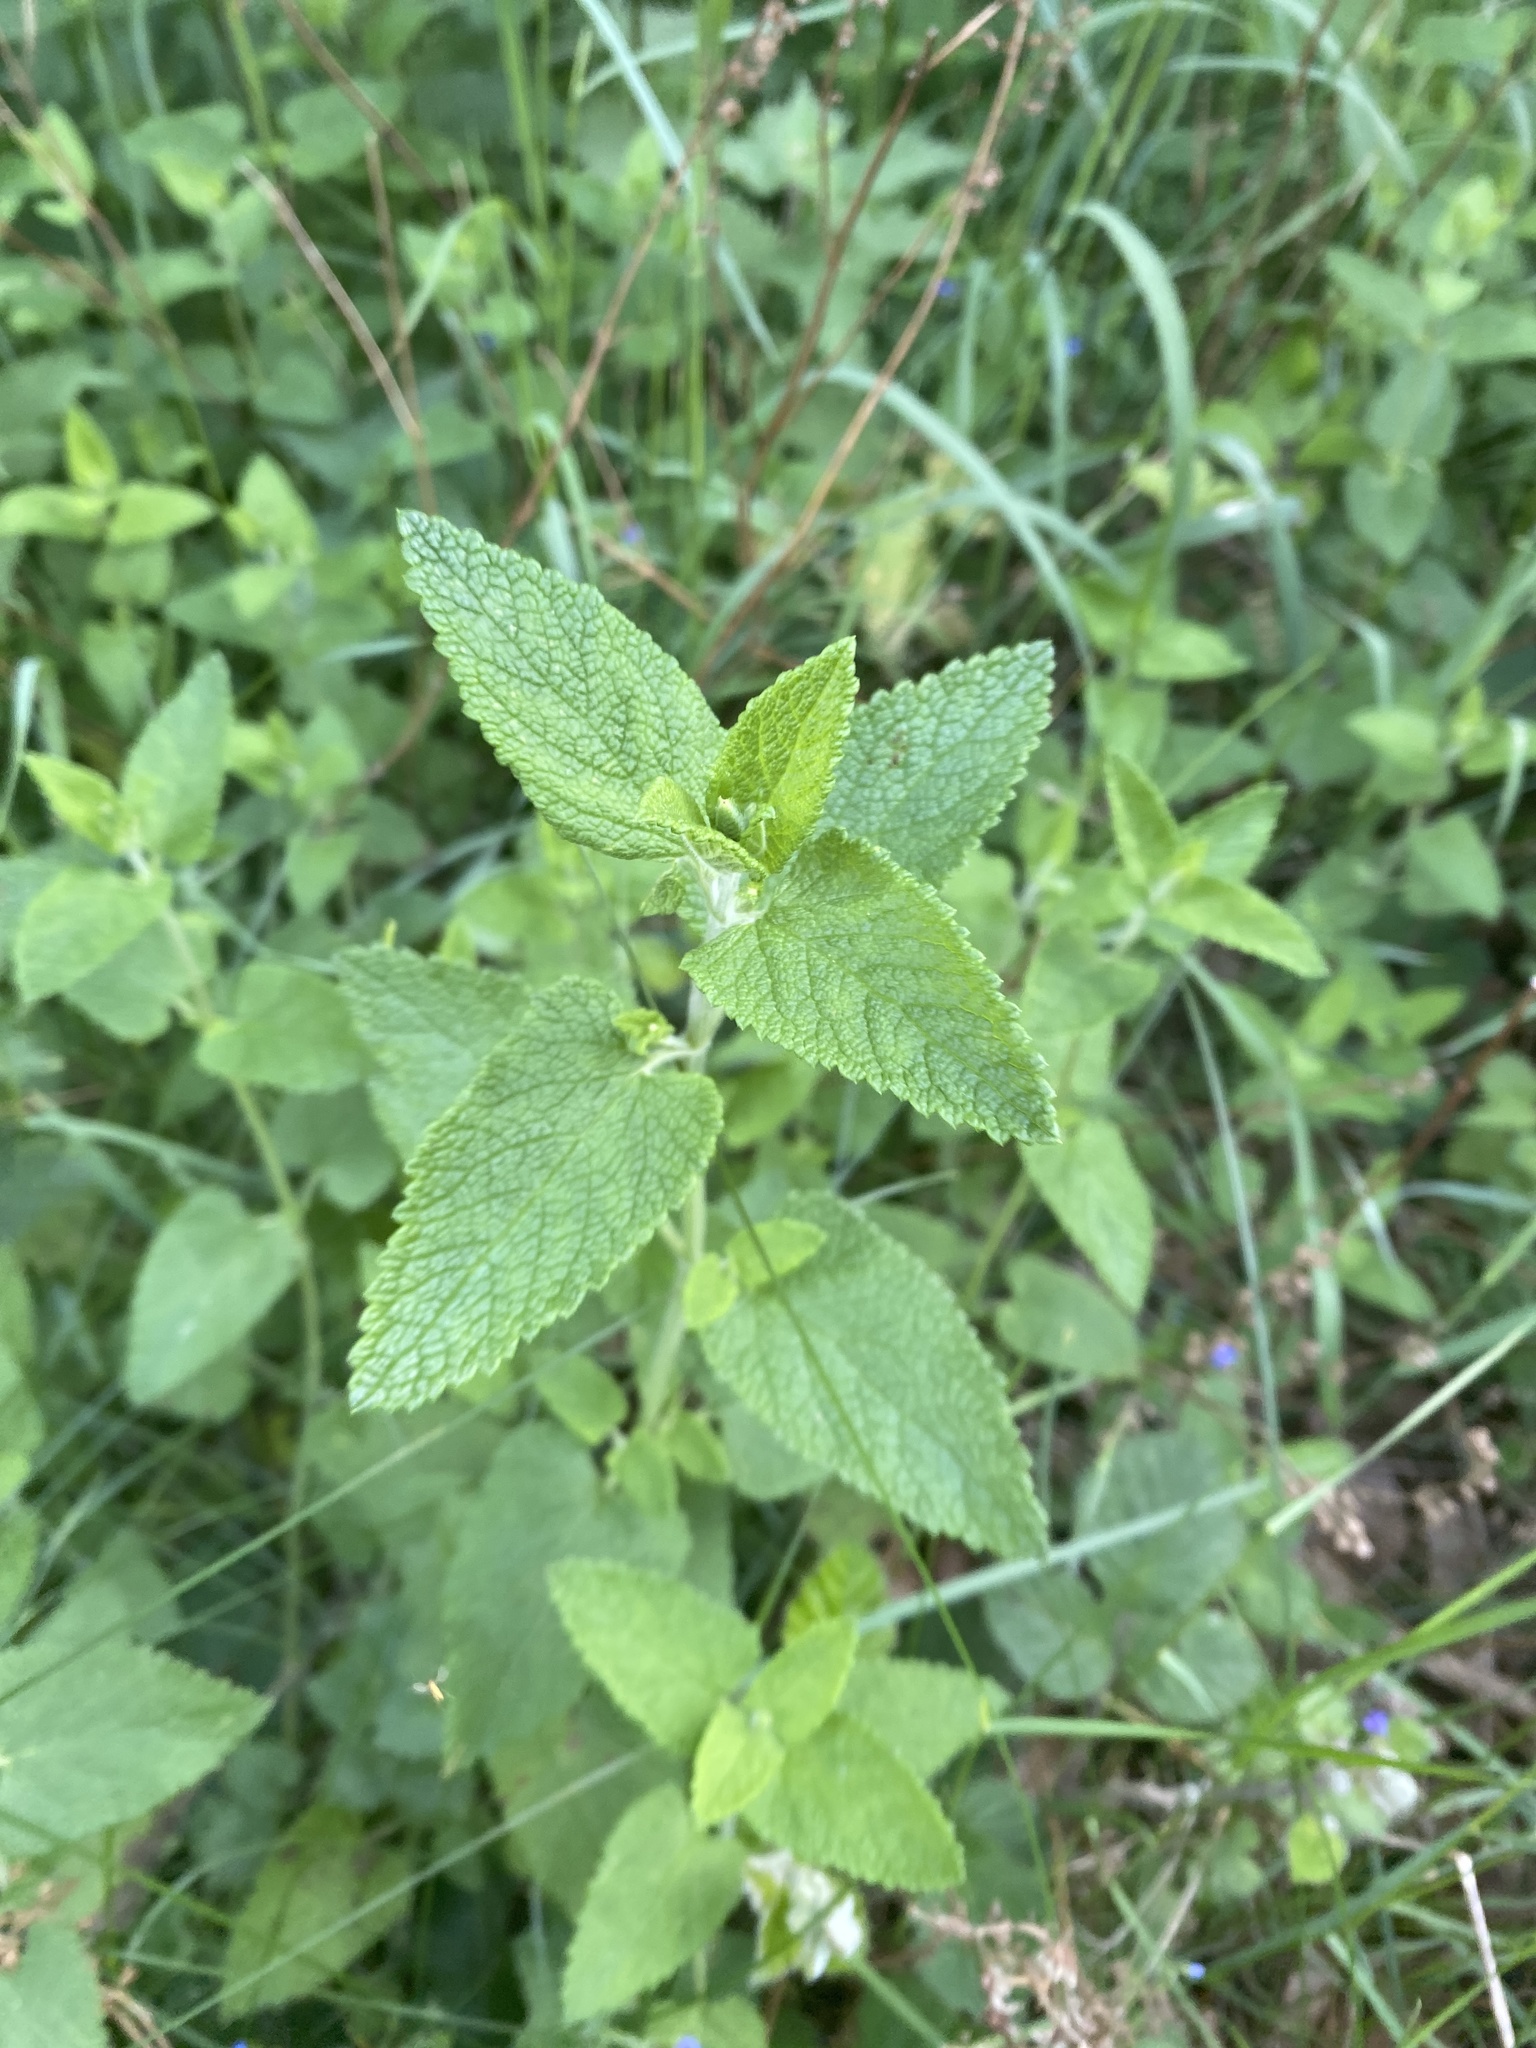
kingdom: Plantae
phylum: Tracheophyta
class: Magnoliopsida
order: Lamiales
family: Lamiaceae
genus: Teucrium
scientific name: Teucrium scorodonia
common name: Woodland germander
